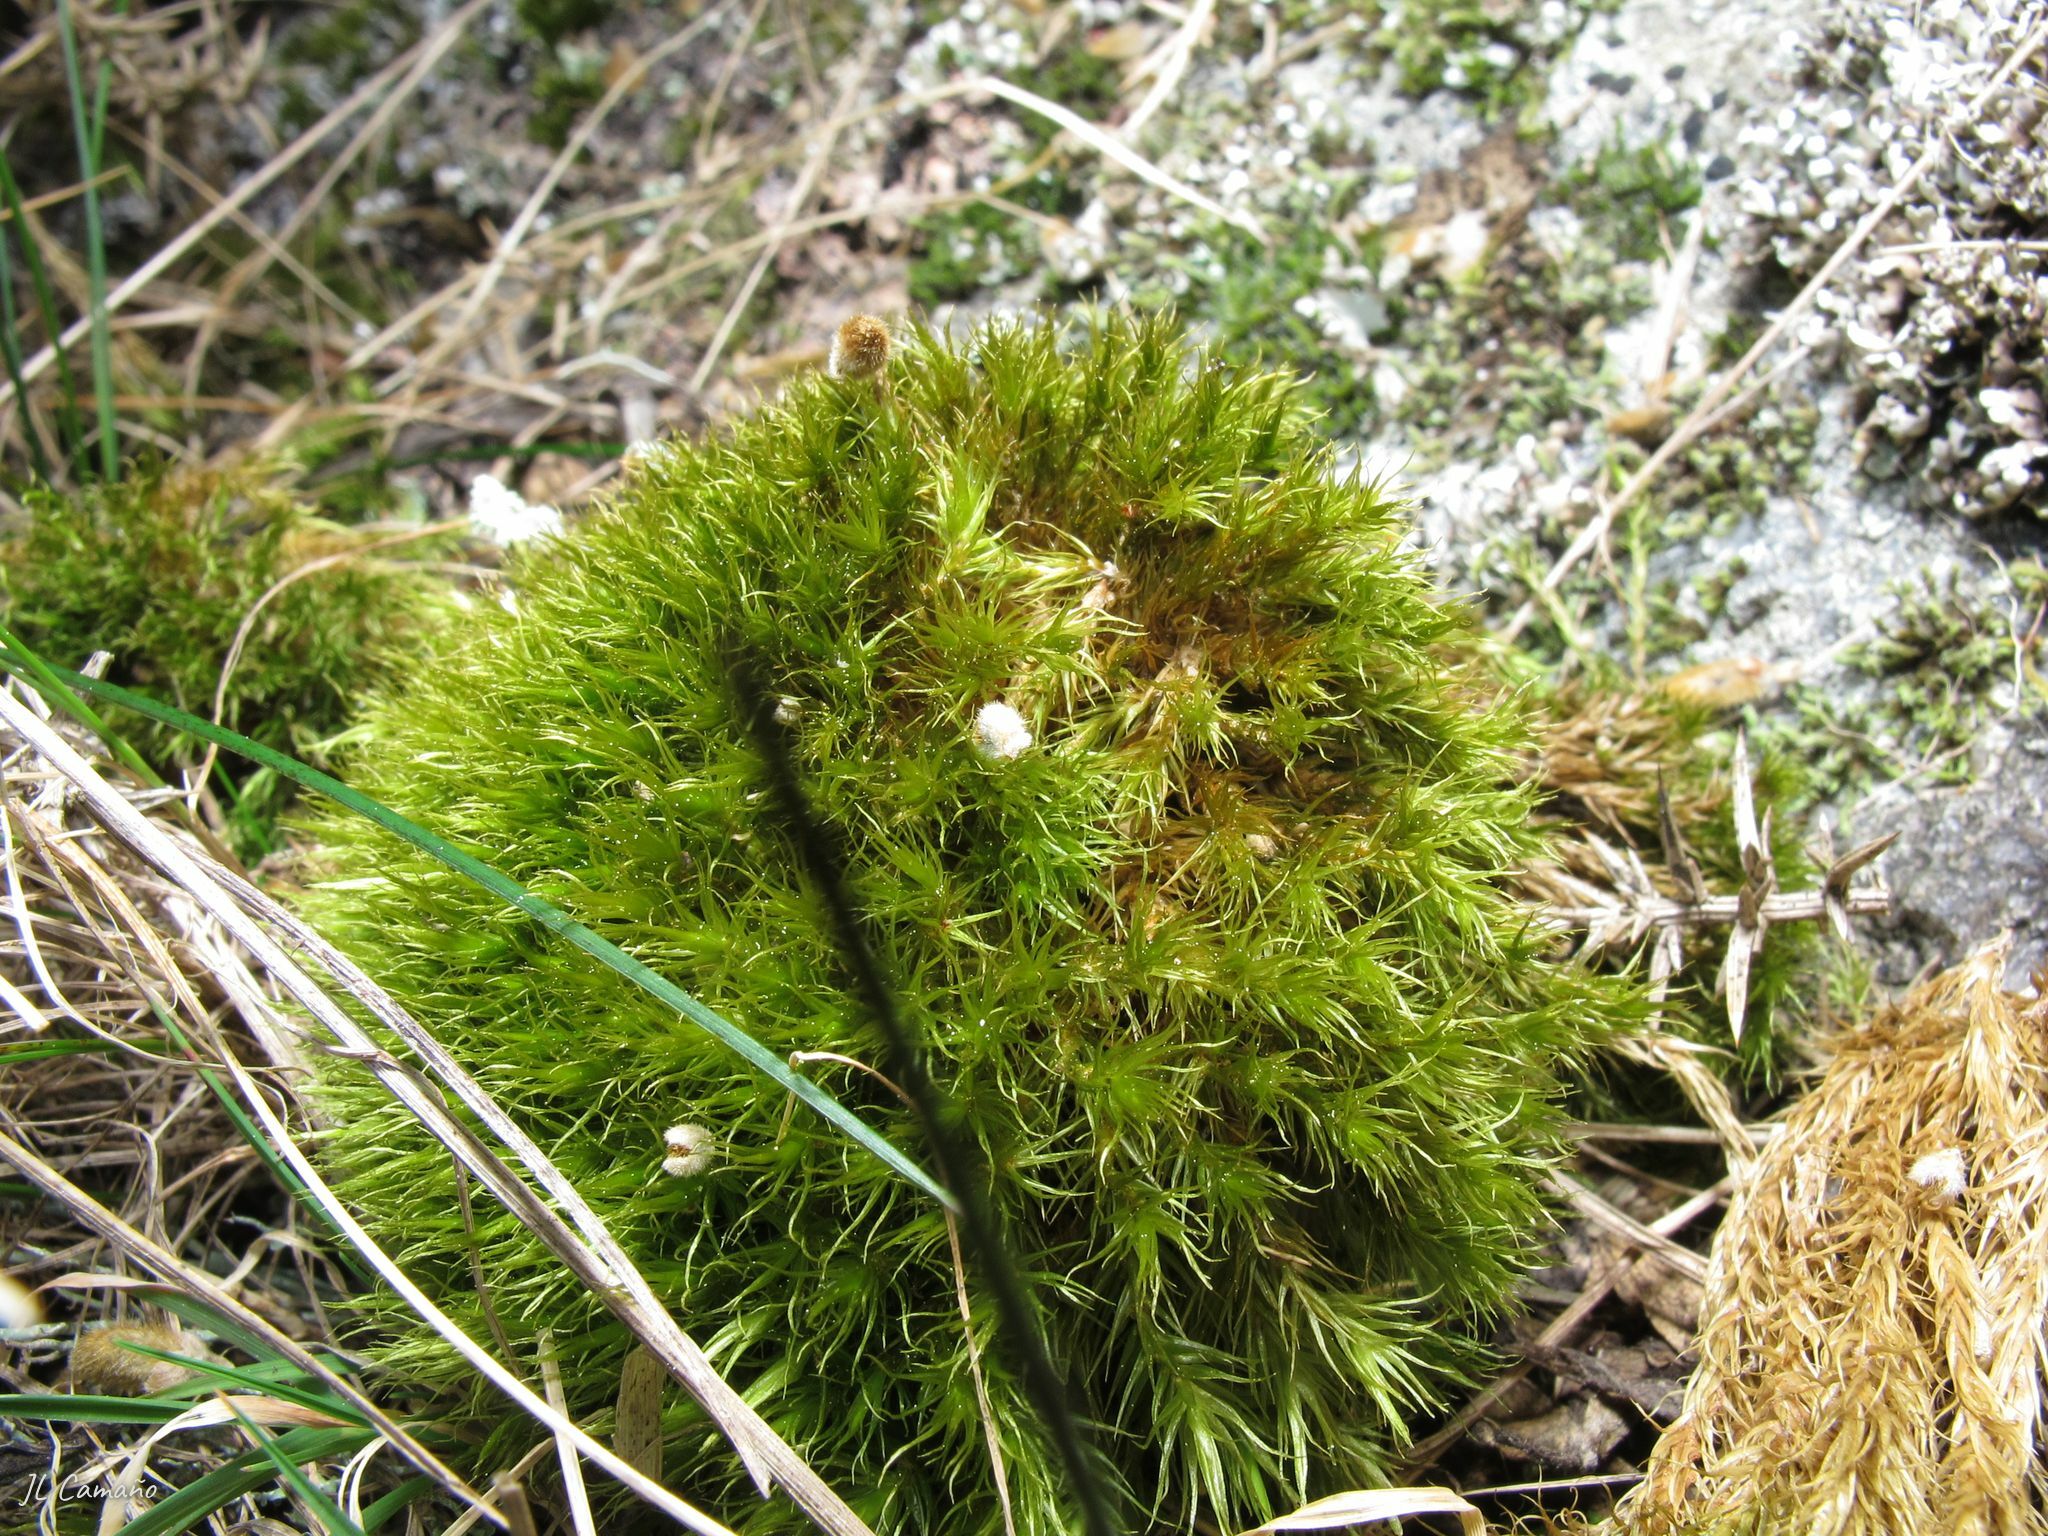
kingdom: Plantae
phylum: Bryophyta
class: Bryopsida
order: Dicranales
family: Dicranaceae
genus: Dicranum
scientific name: Dicranum scoparium
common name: Broom fork-moss
